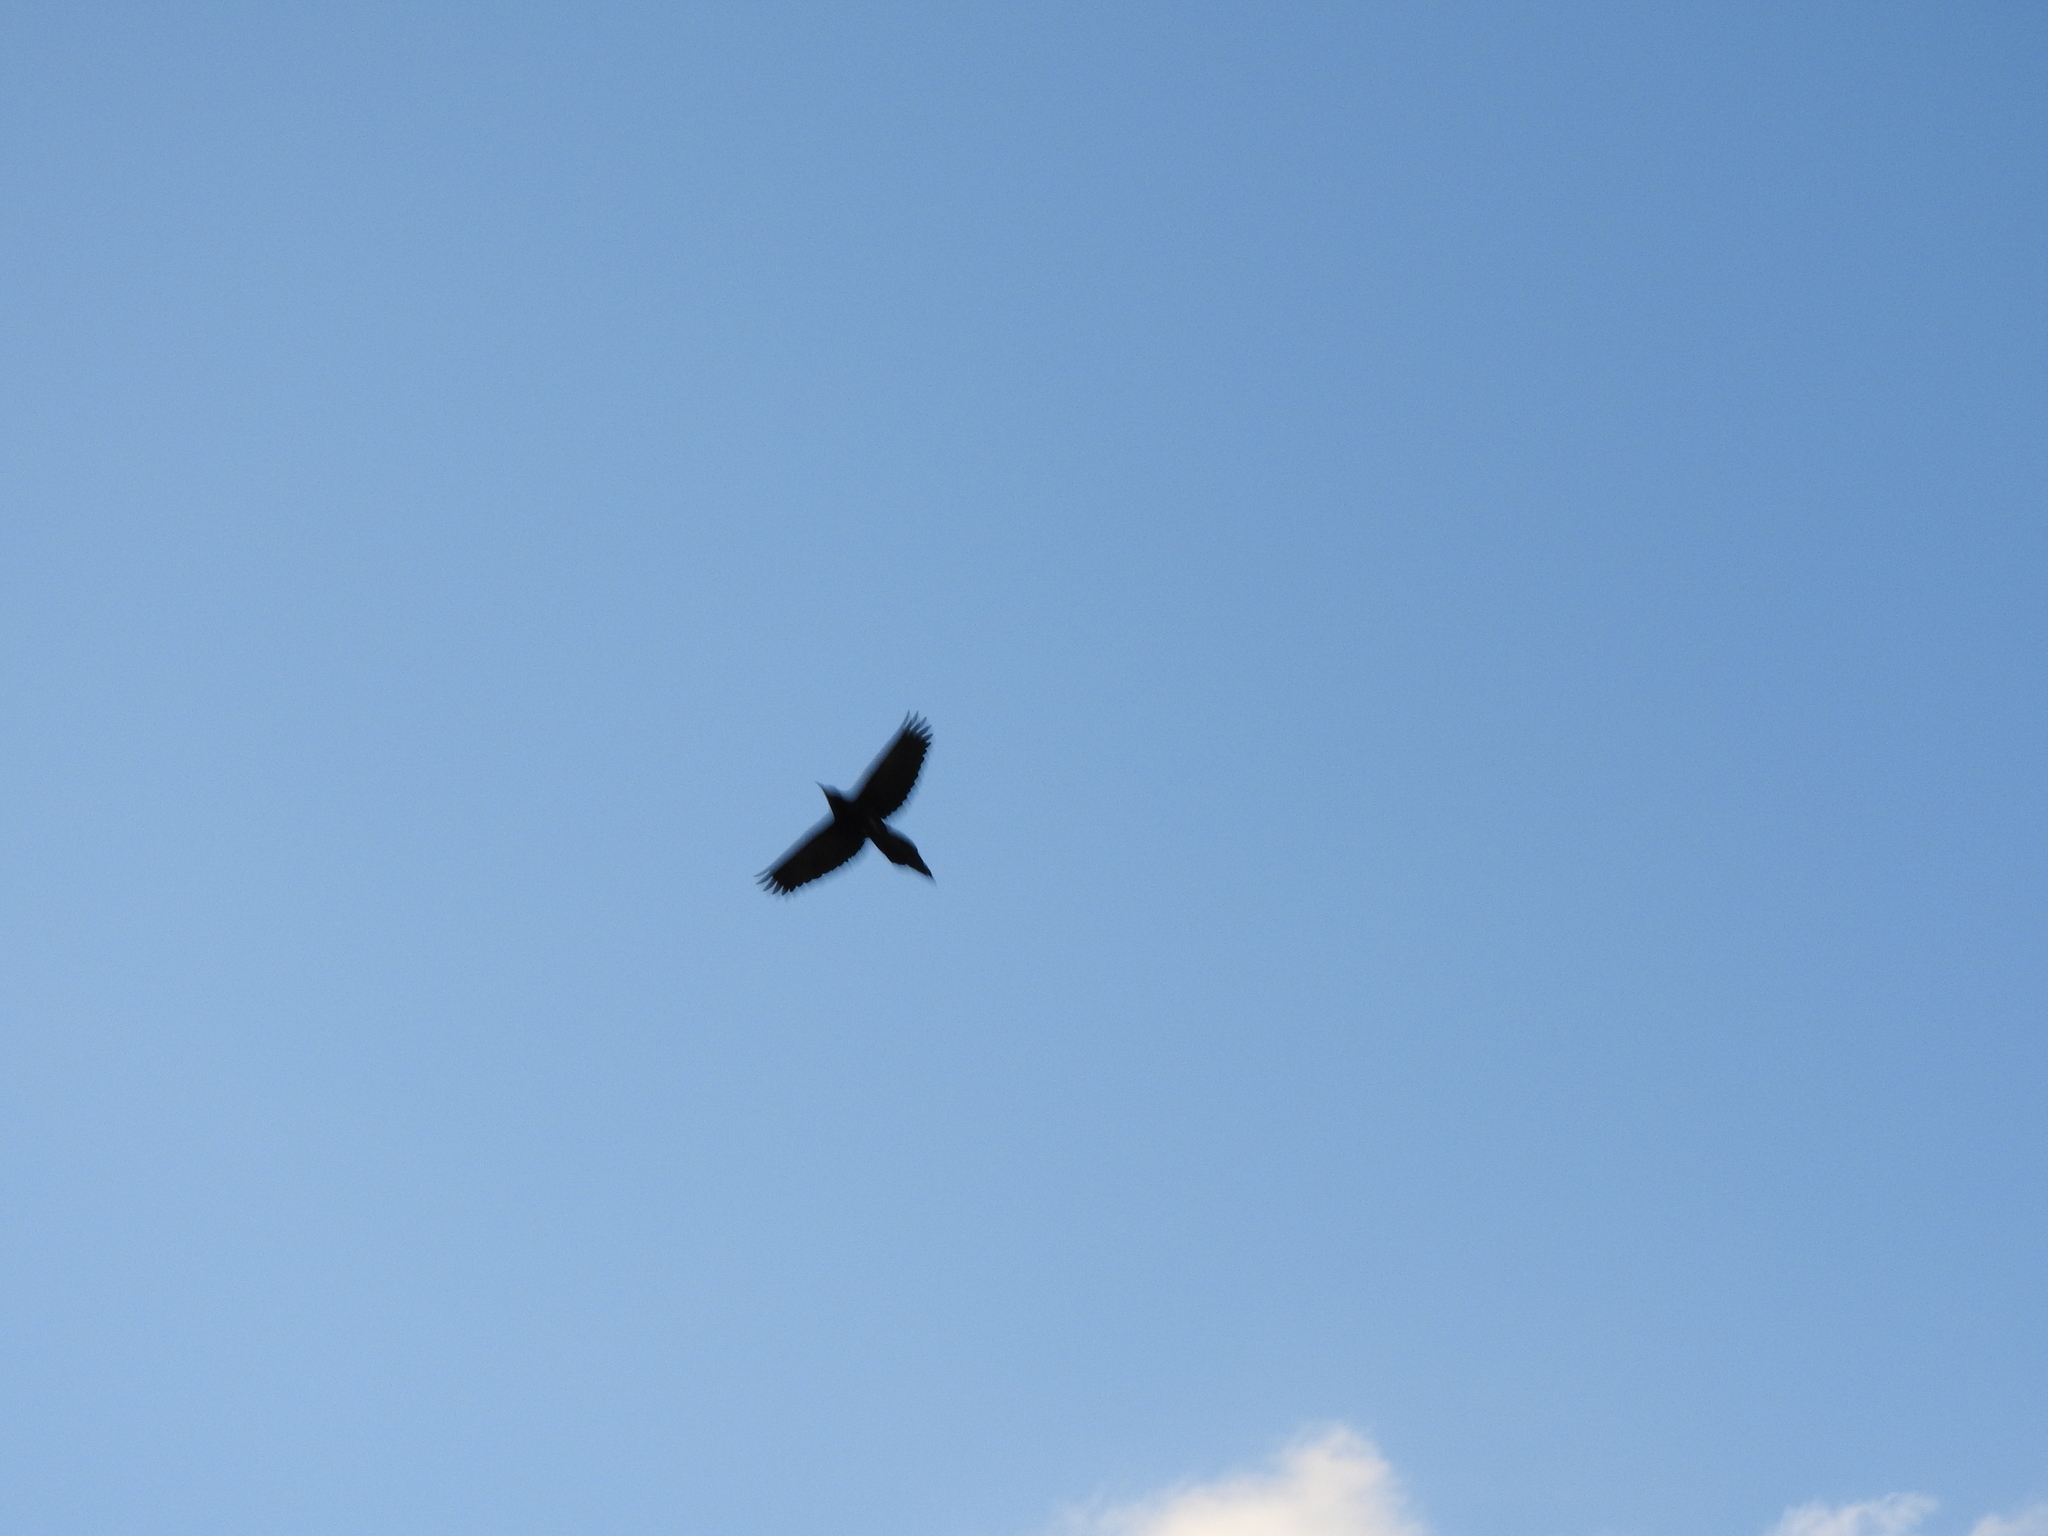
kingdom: Animalia
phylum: Chordata
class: Aves
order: Passeriformes
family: Icteridae
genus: Quiscalus
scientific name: Quiscalus mexicanus
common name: Great-tailed grackle
